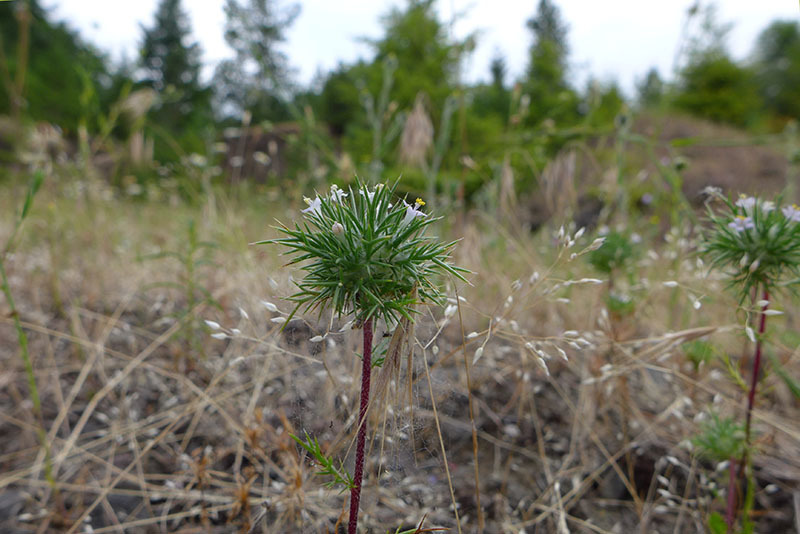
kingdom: Plantae
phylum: Tracheophyta
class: Magnoliopsida
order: Ericales
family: Polemoniaceae
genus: Navarretia
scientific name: Navarretia intertexta
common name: Needle-leaved navarretia
